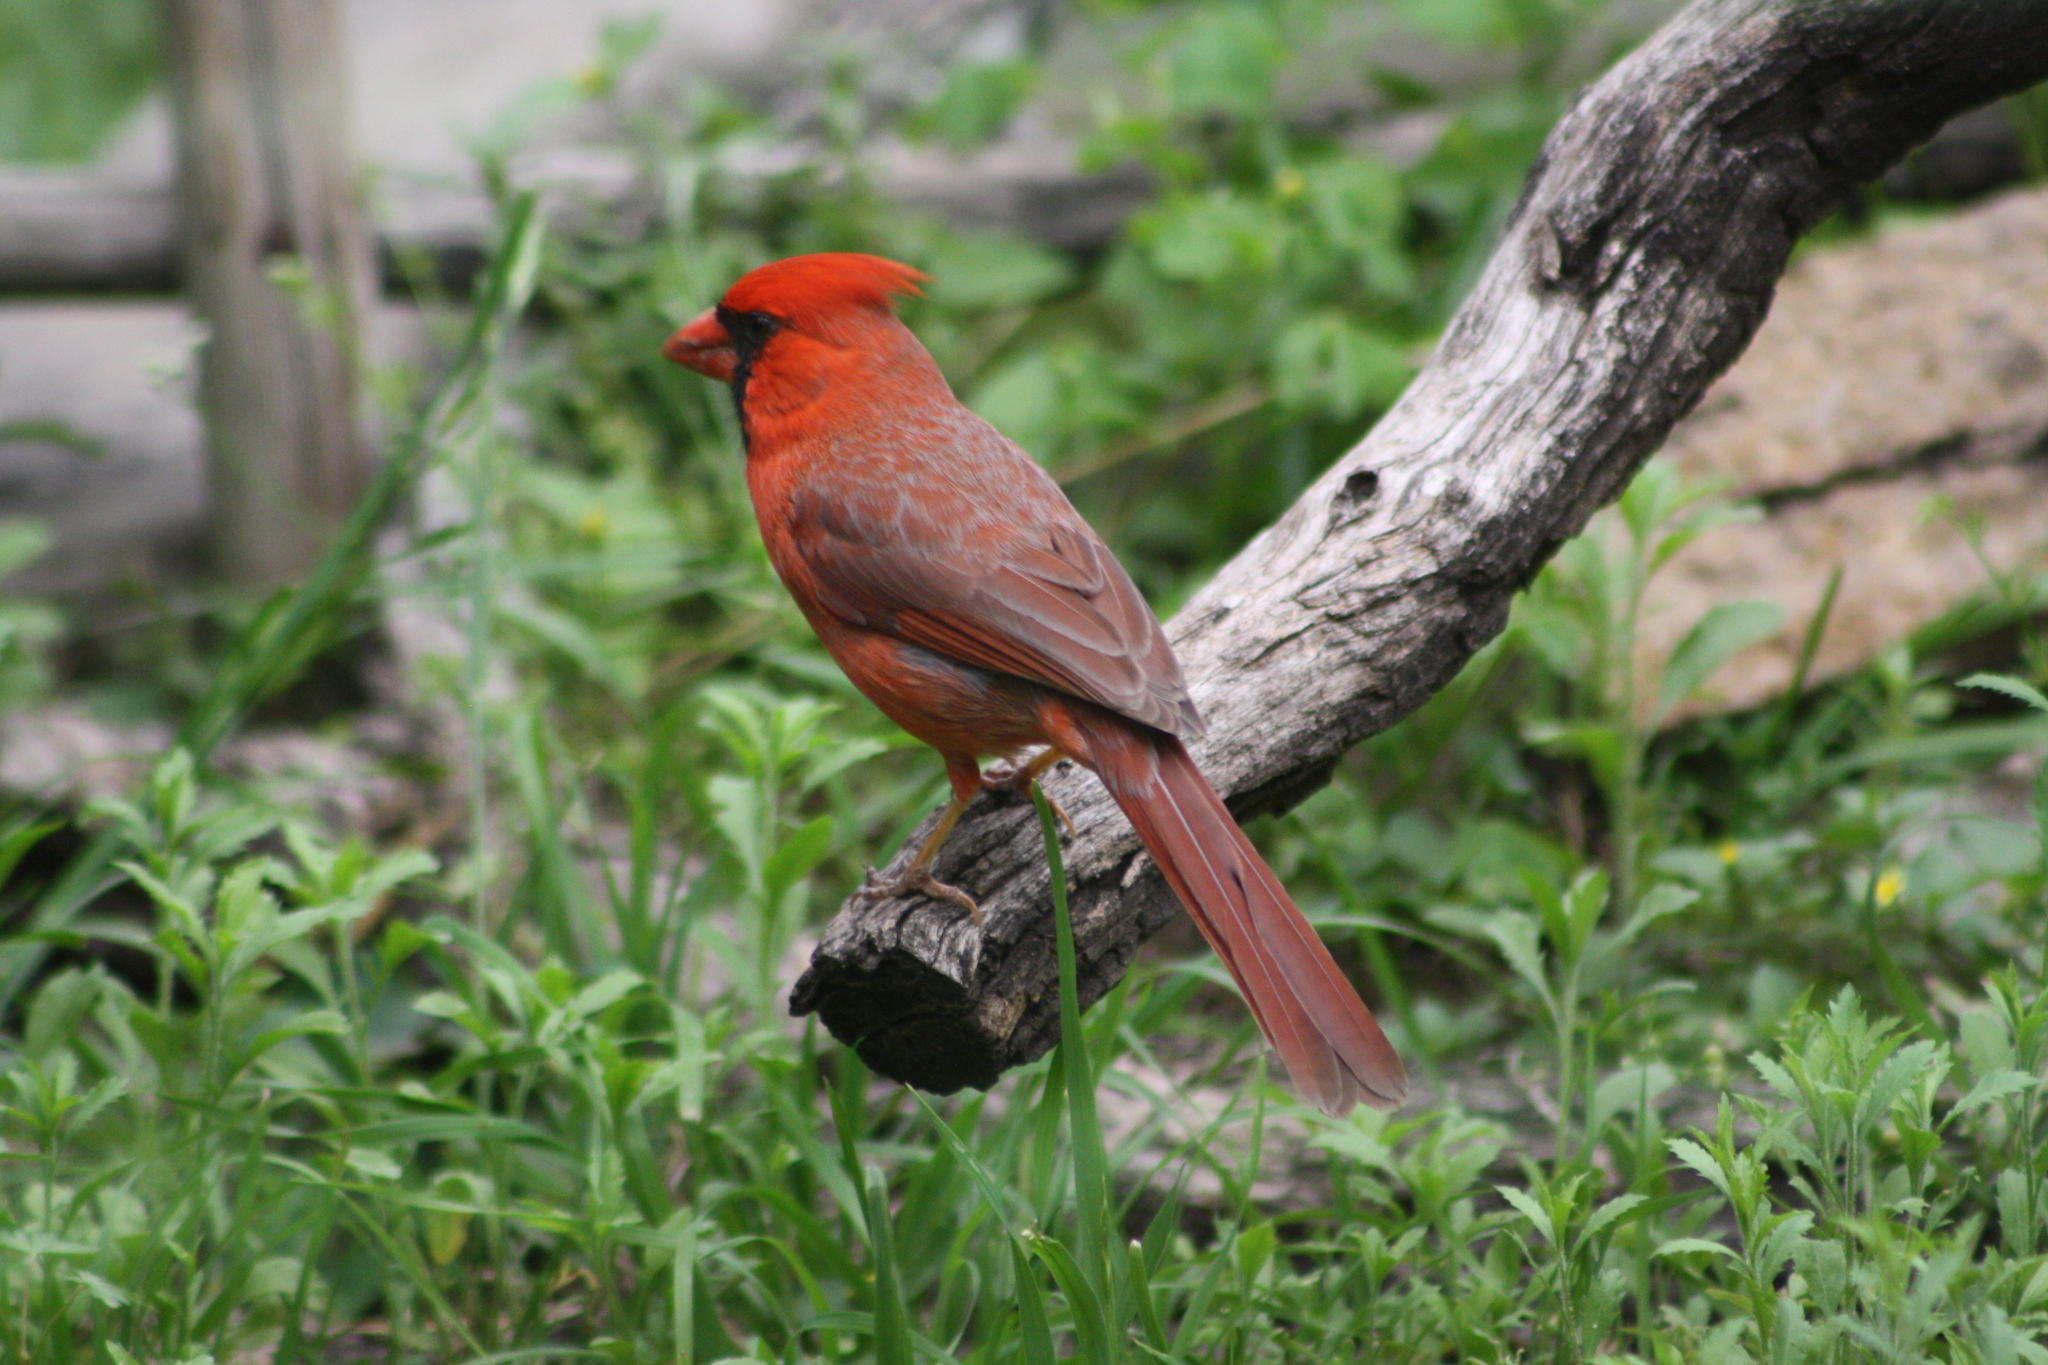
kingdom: Animalia
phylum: Chordata
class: Aves
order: Passeriformes
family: Cardinalidae
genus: Cardinalis
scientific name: Cardinalis cardinalis
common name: Northern cardinal
